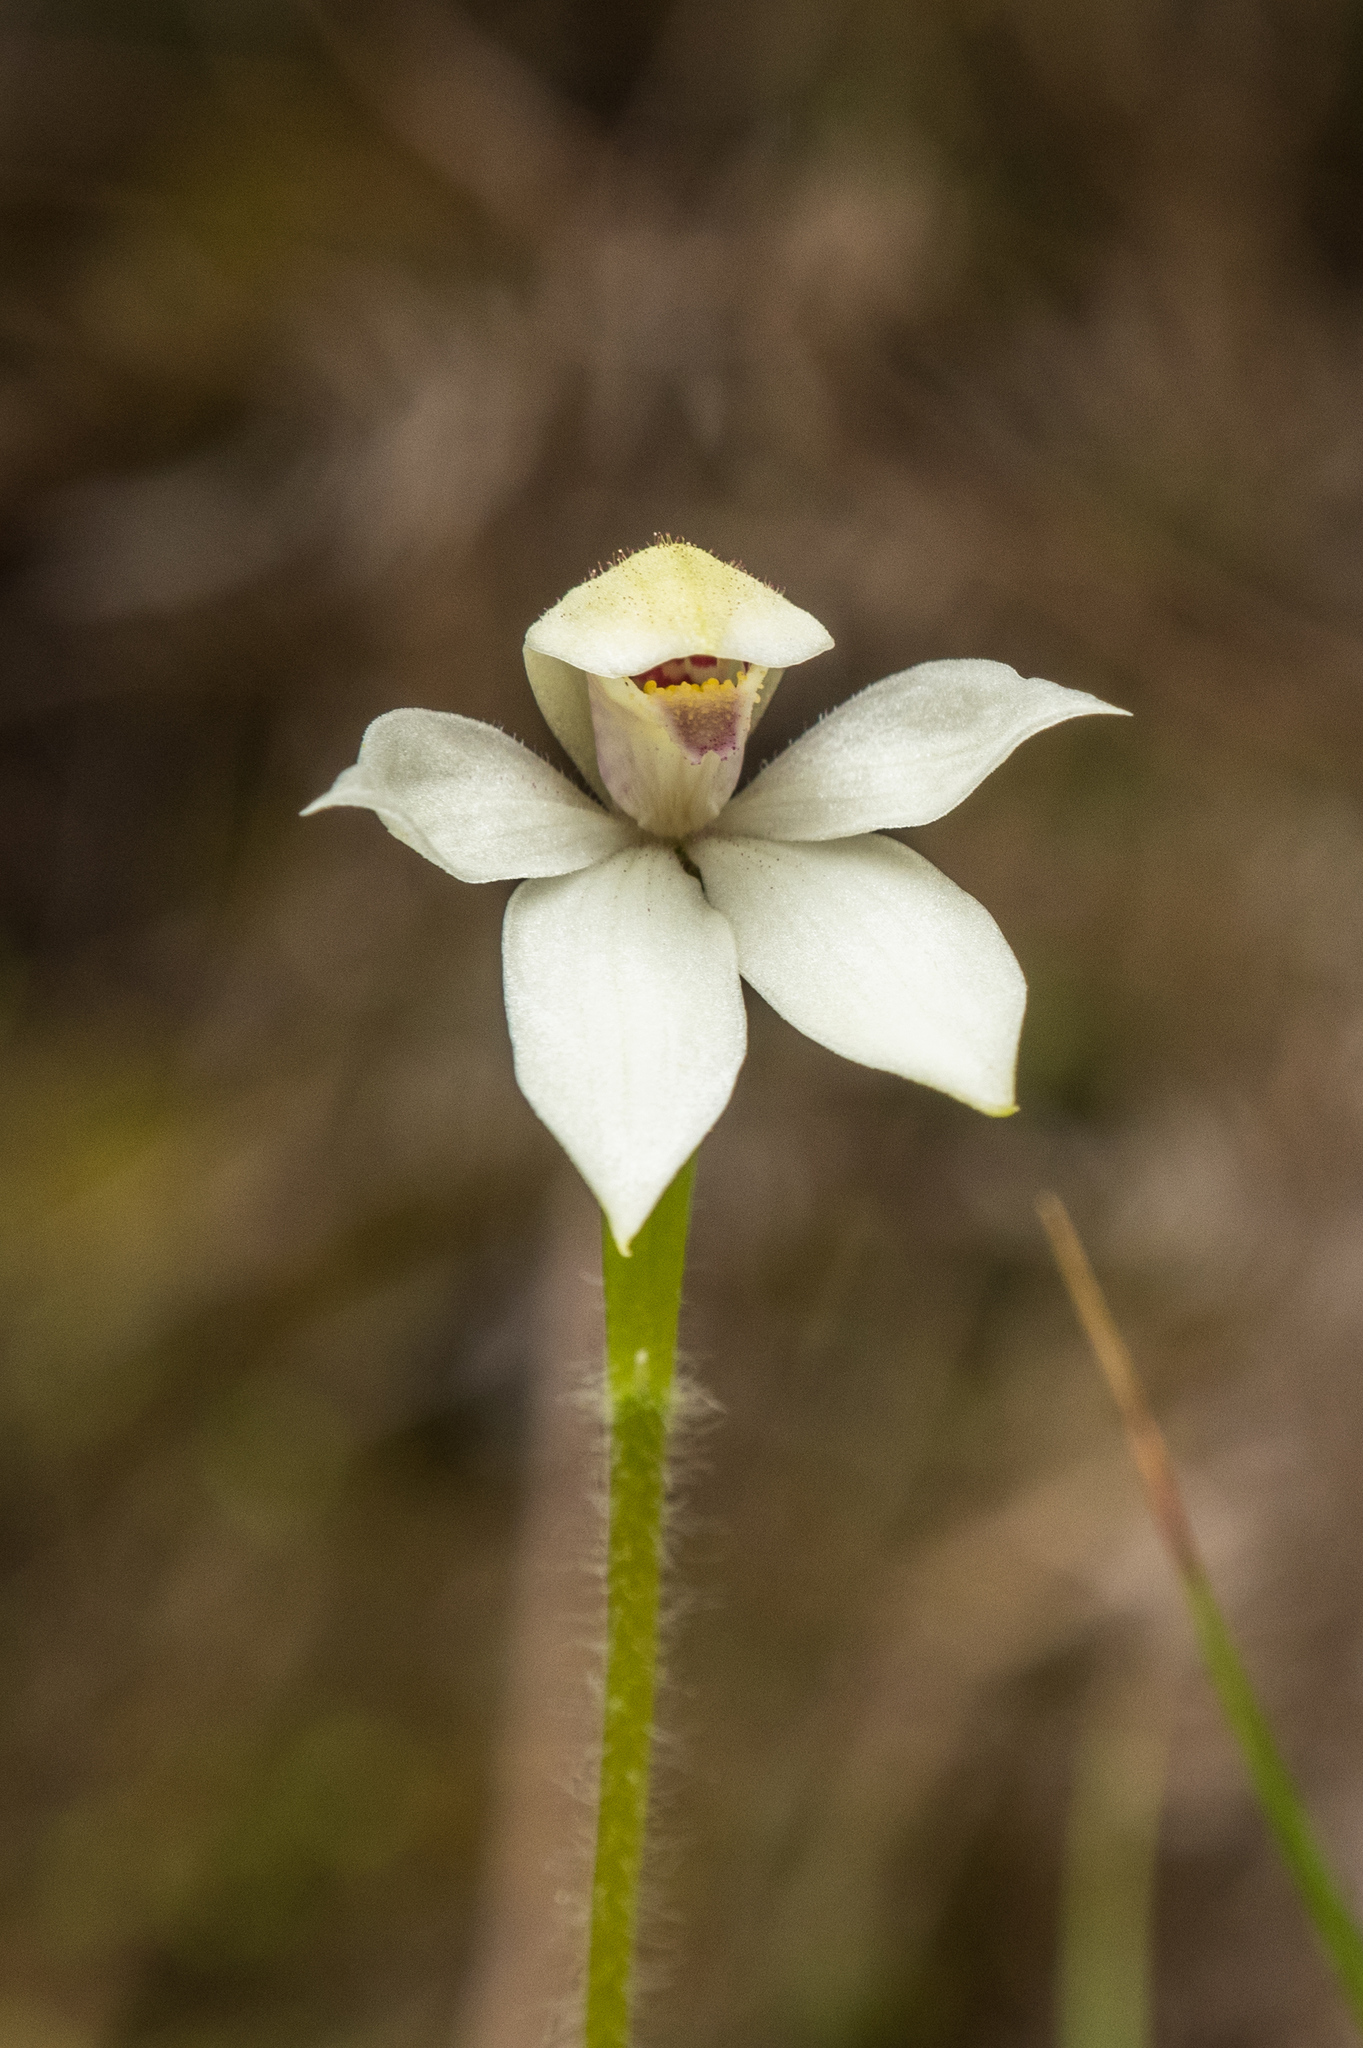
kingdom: Plantae
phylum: Tracheophyta
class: Liliopsida
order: Asparagales
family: Orchidaceae
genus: Caladenia
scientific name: Caladenia lyallii
